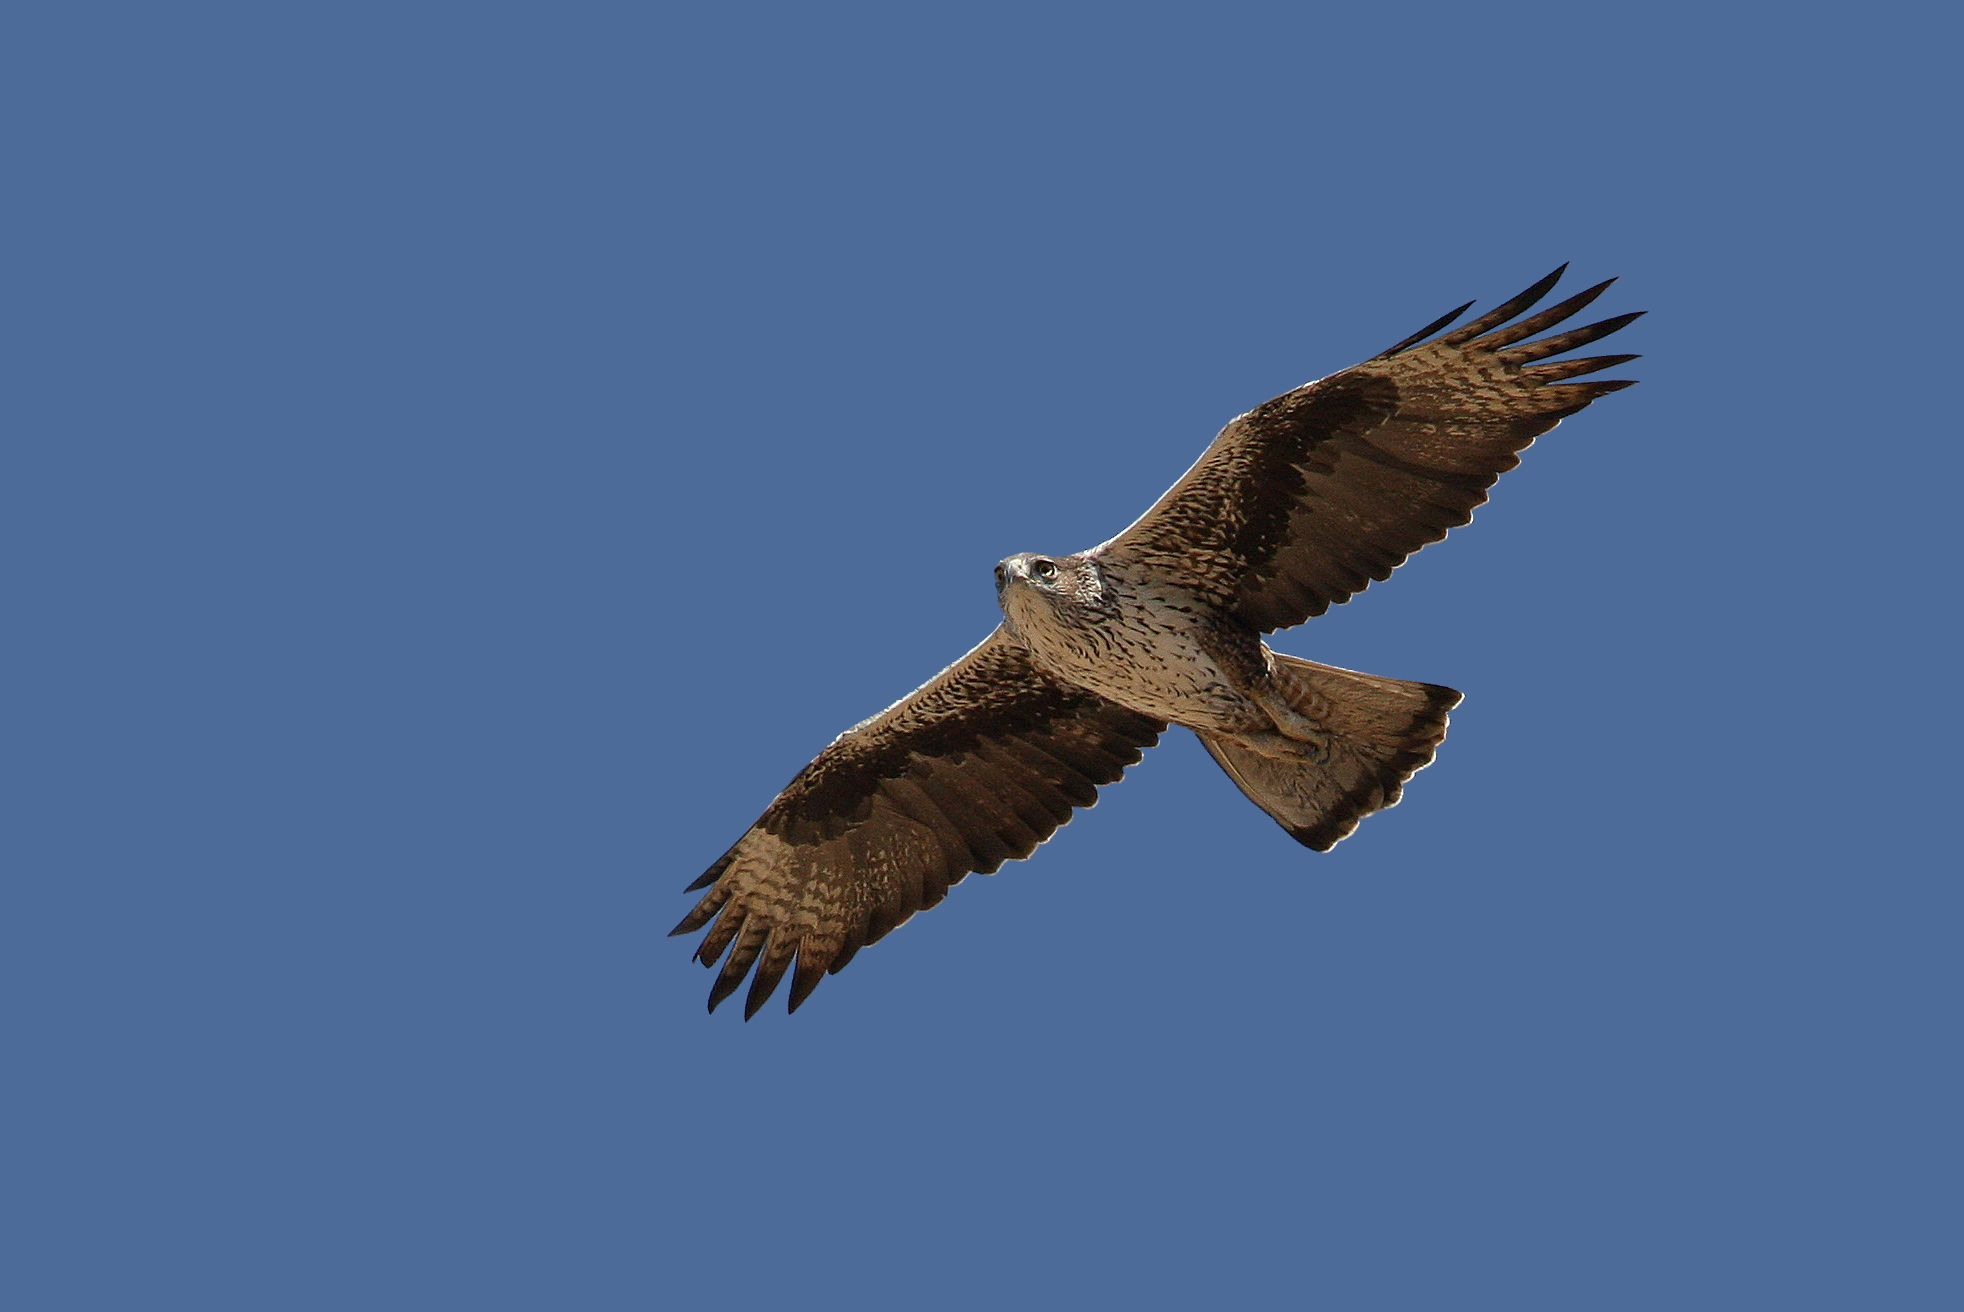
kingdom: Animalia
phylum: Chordata
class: Aves
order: Accipitriformes
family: Accipitridae
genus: Aquila
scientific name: Aquila fasciata
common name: Bonelli's eagle
